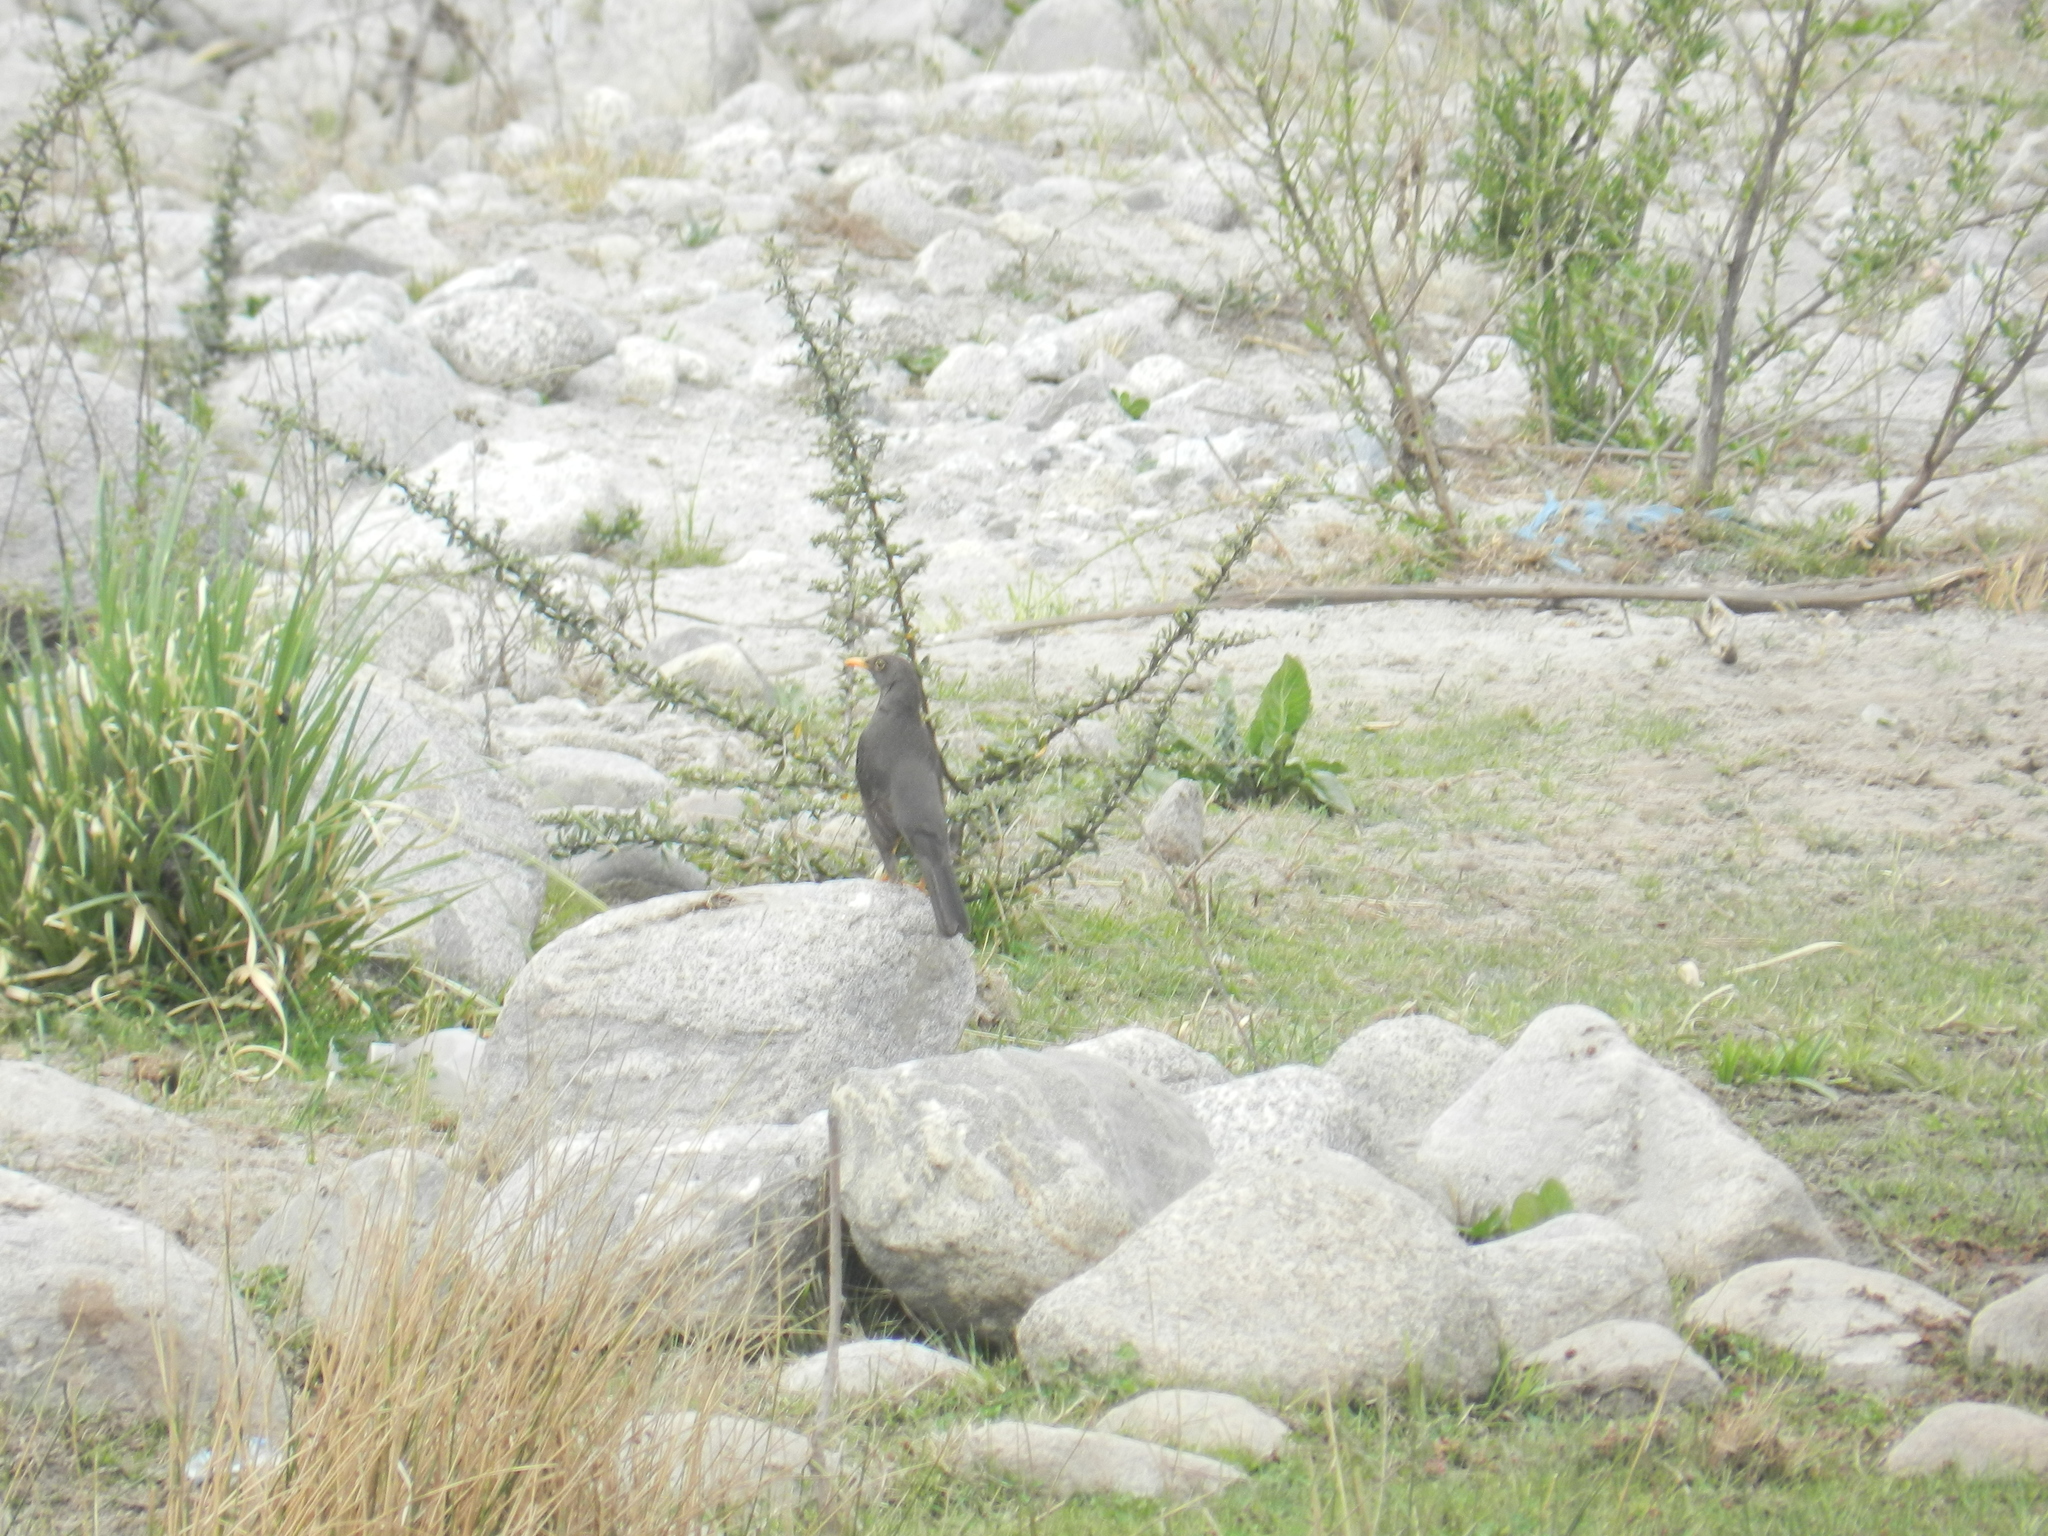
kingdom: Animalia
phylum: Chordata
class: Aves
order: Passeriformes
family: Turdidae
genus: Turdus
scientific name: Turdus chiguanco
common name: Chiguanco thrush
